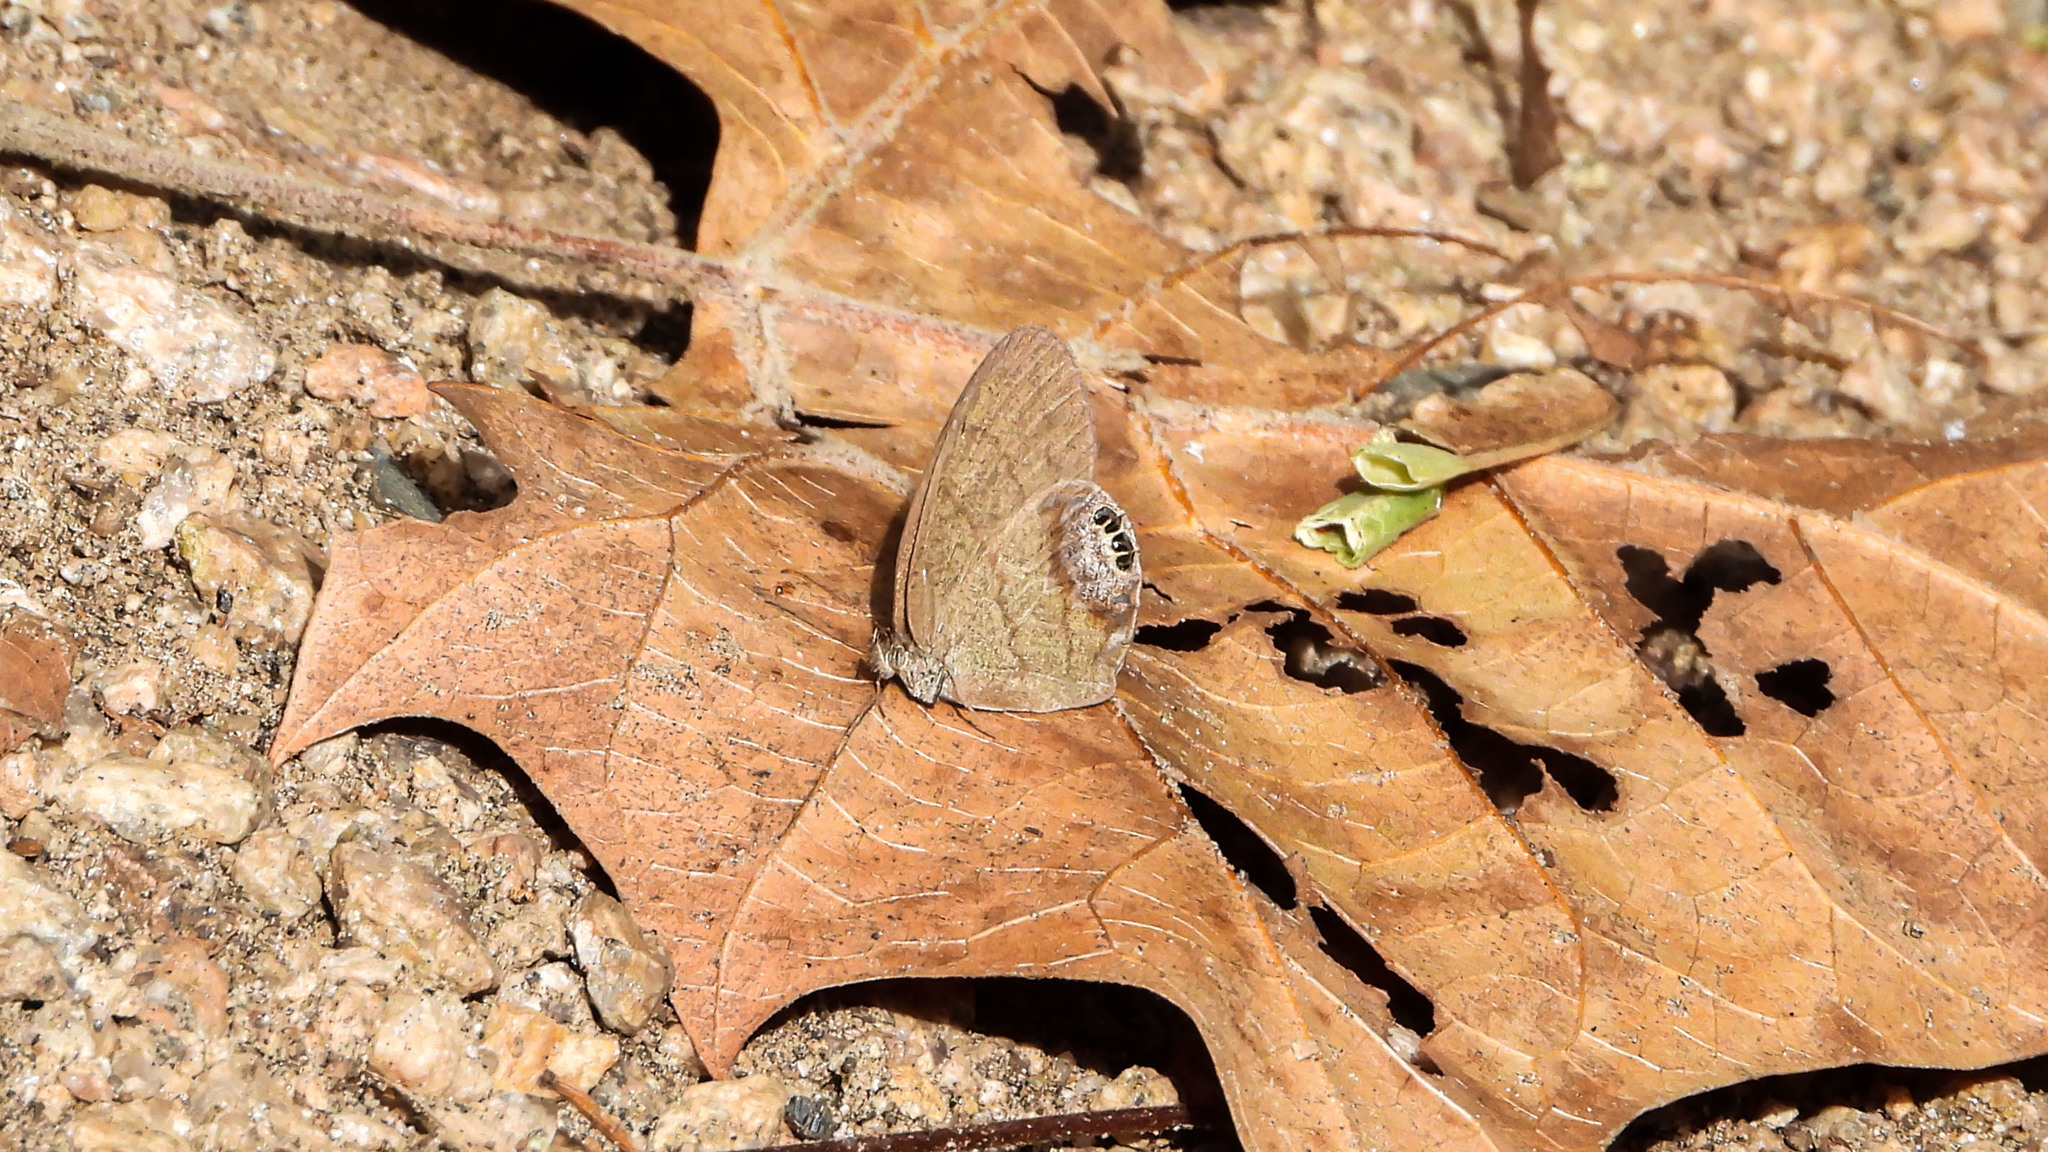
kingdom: Animalia
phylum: Arthropoda
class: Insecta
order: Lepidoptera
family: Nymphalidae
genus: Euptychia
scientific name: Euptychia cornelius
